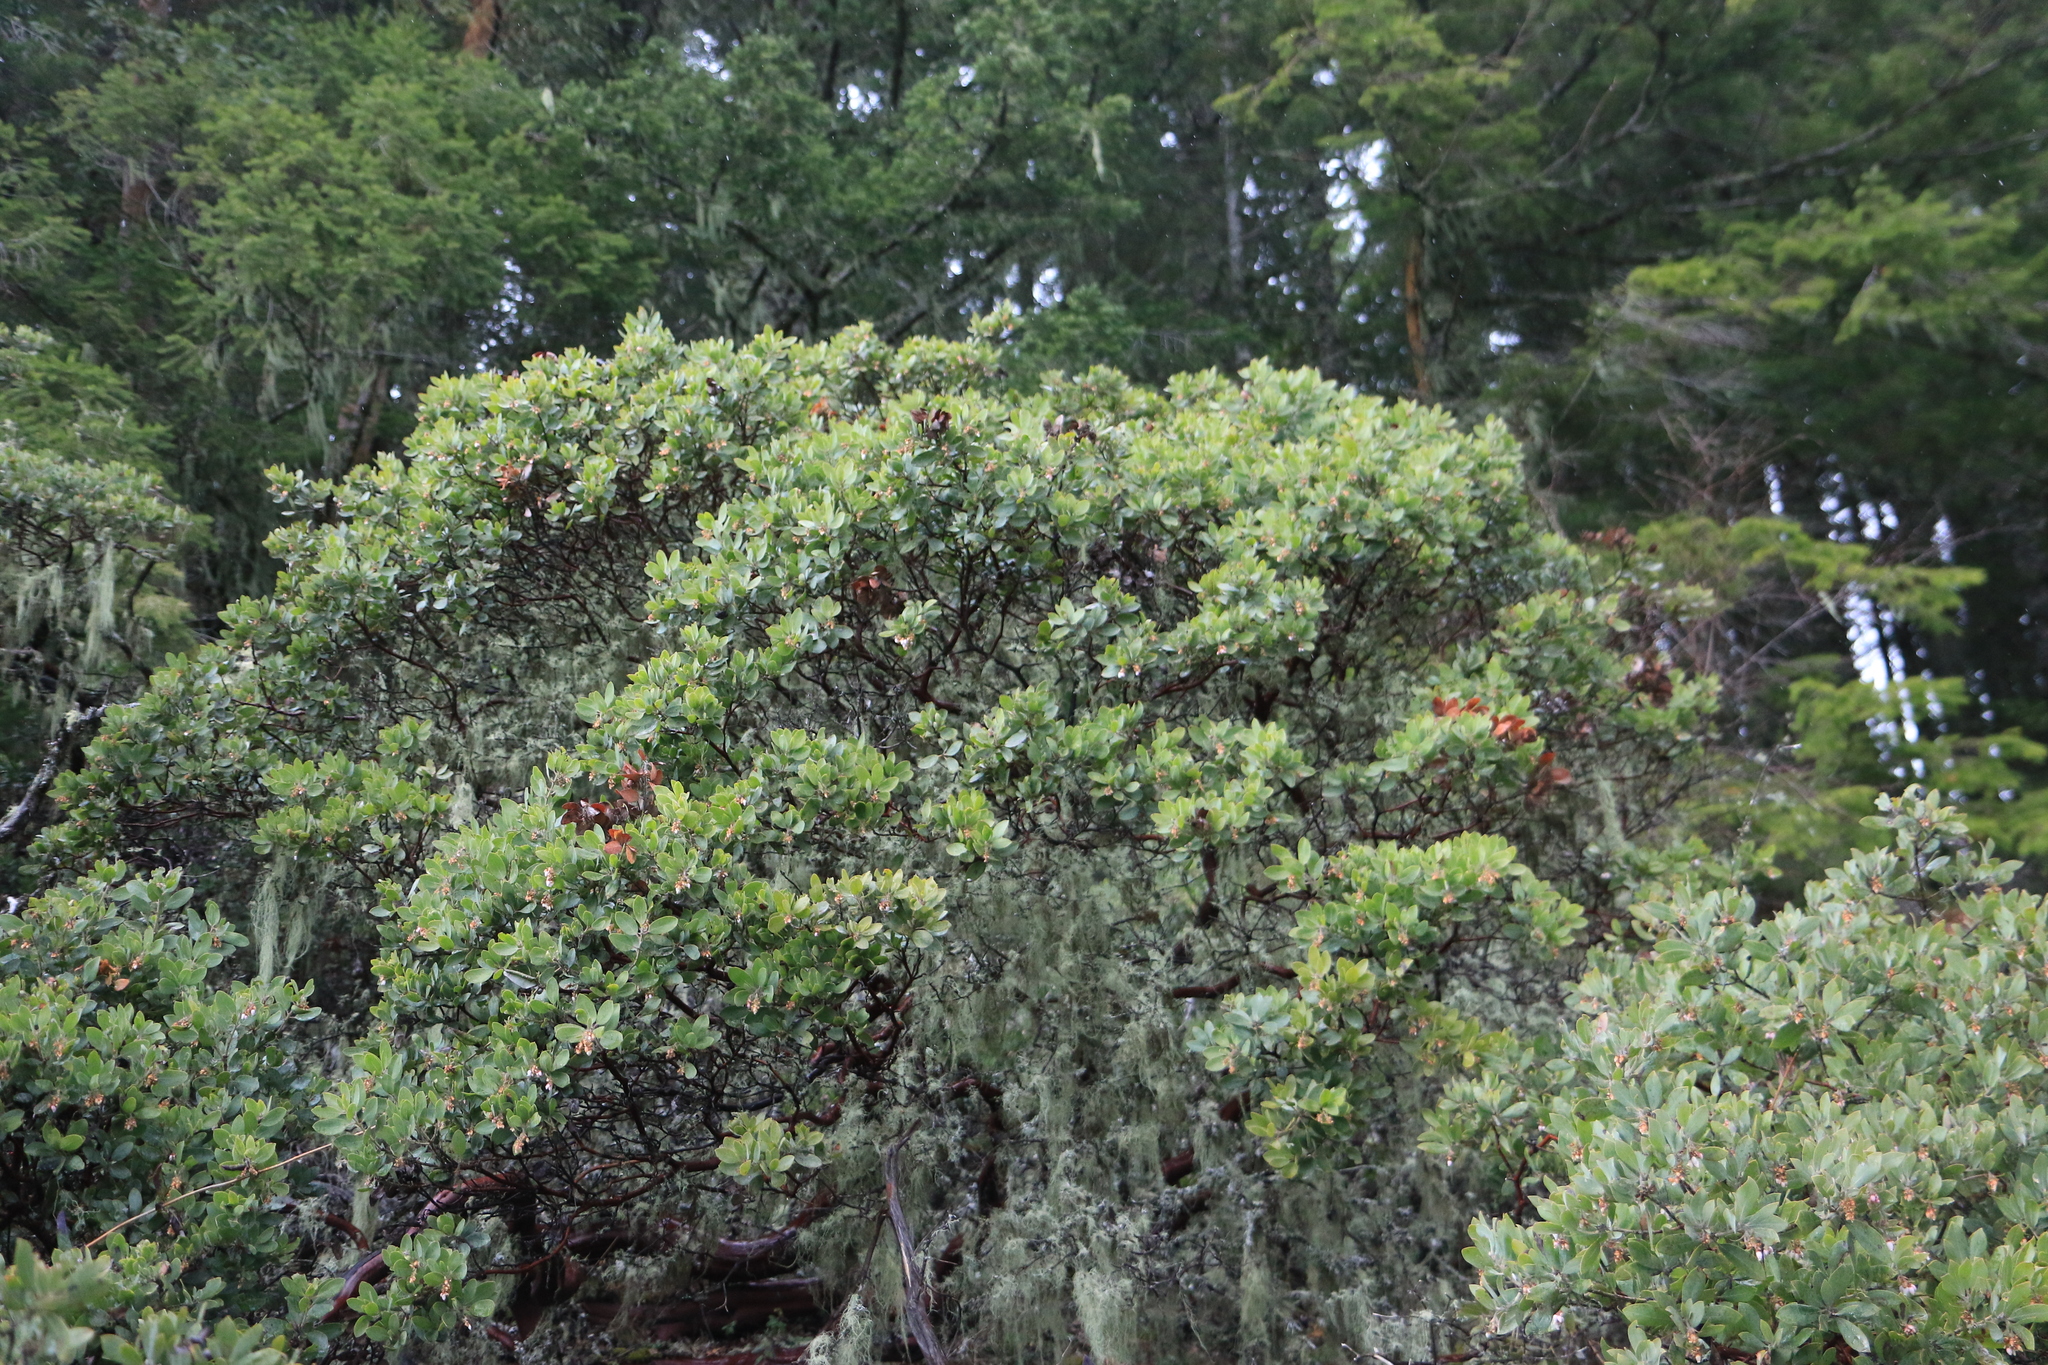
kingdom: Plantae
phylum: Tracheophyta
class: Magnoliopsida
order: Ericales
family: Ericaceae
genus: Arctostaphylos
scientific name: Arctostaphylos columbiana
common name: Bristly bearberry
